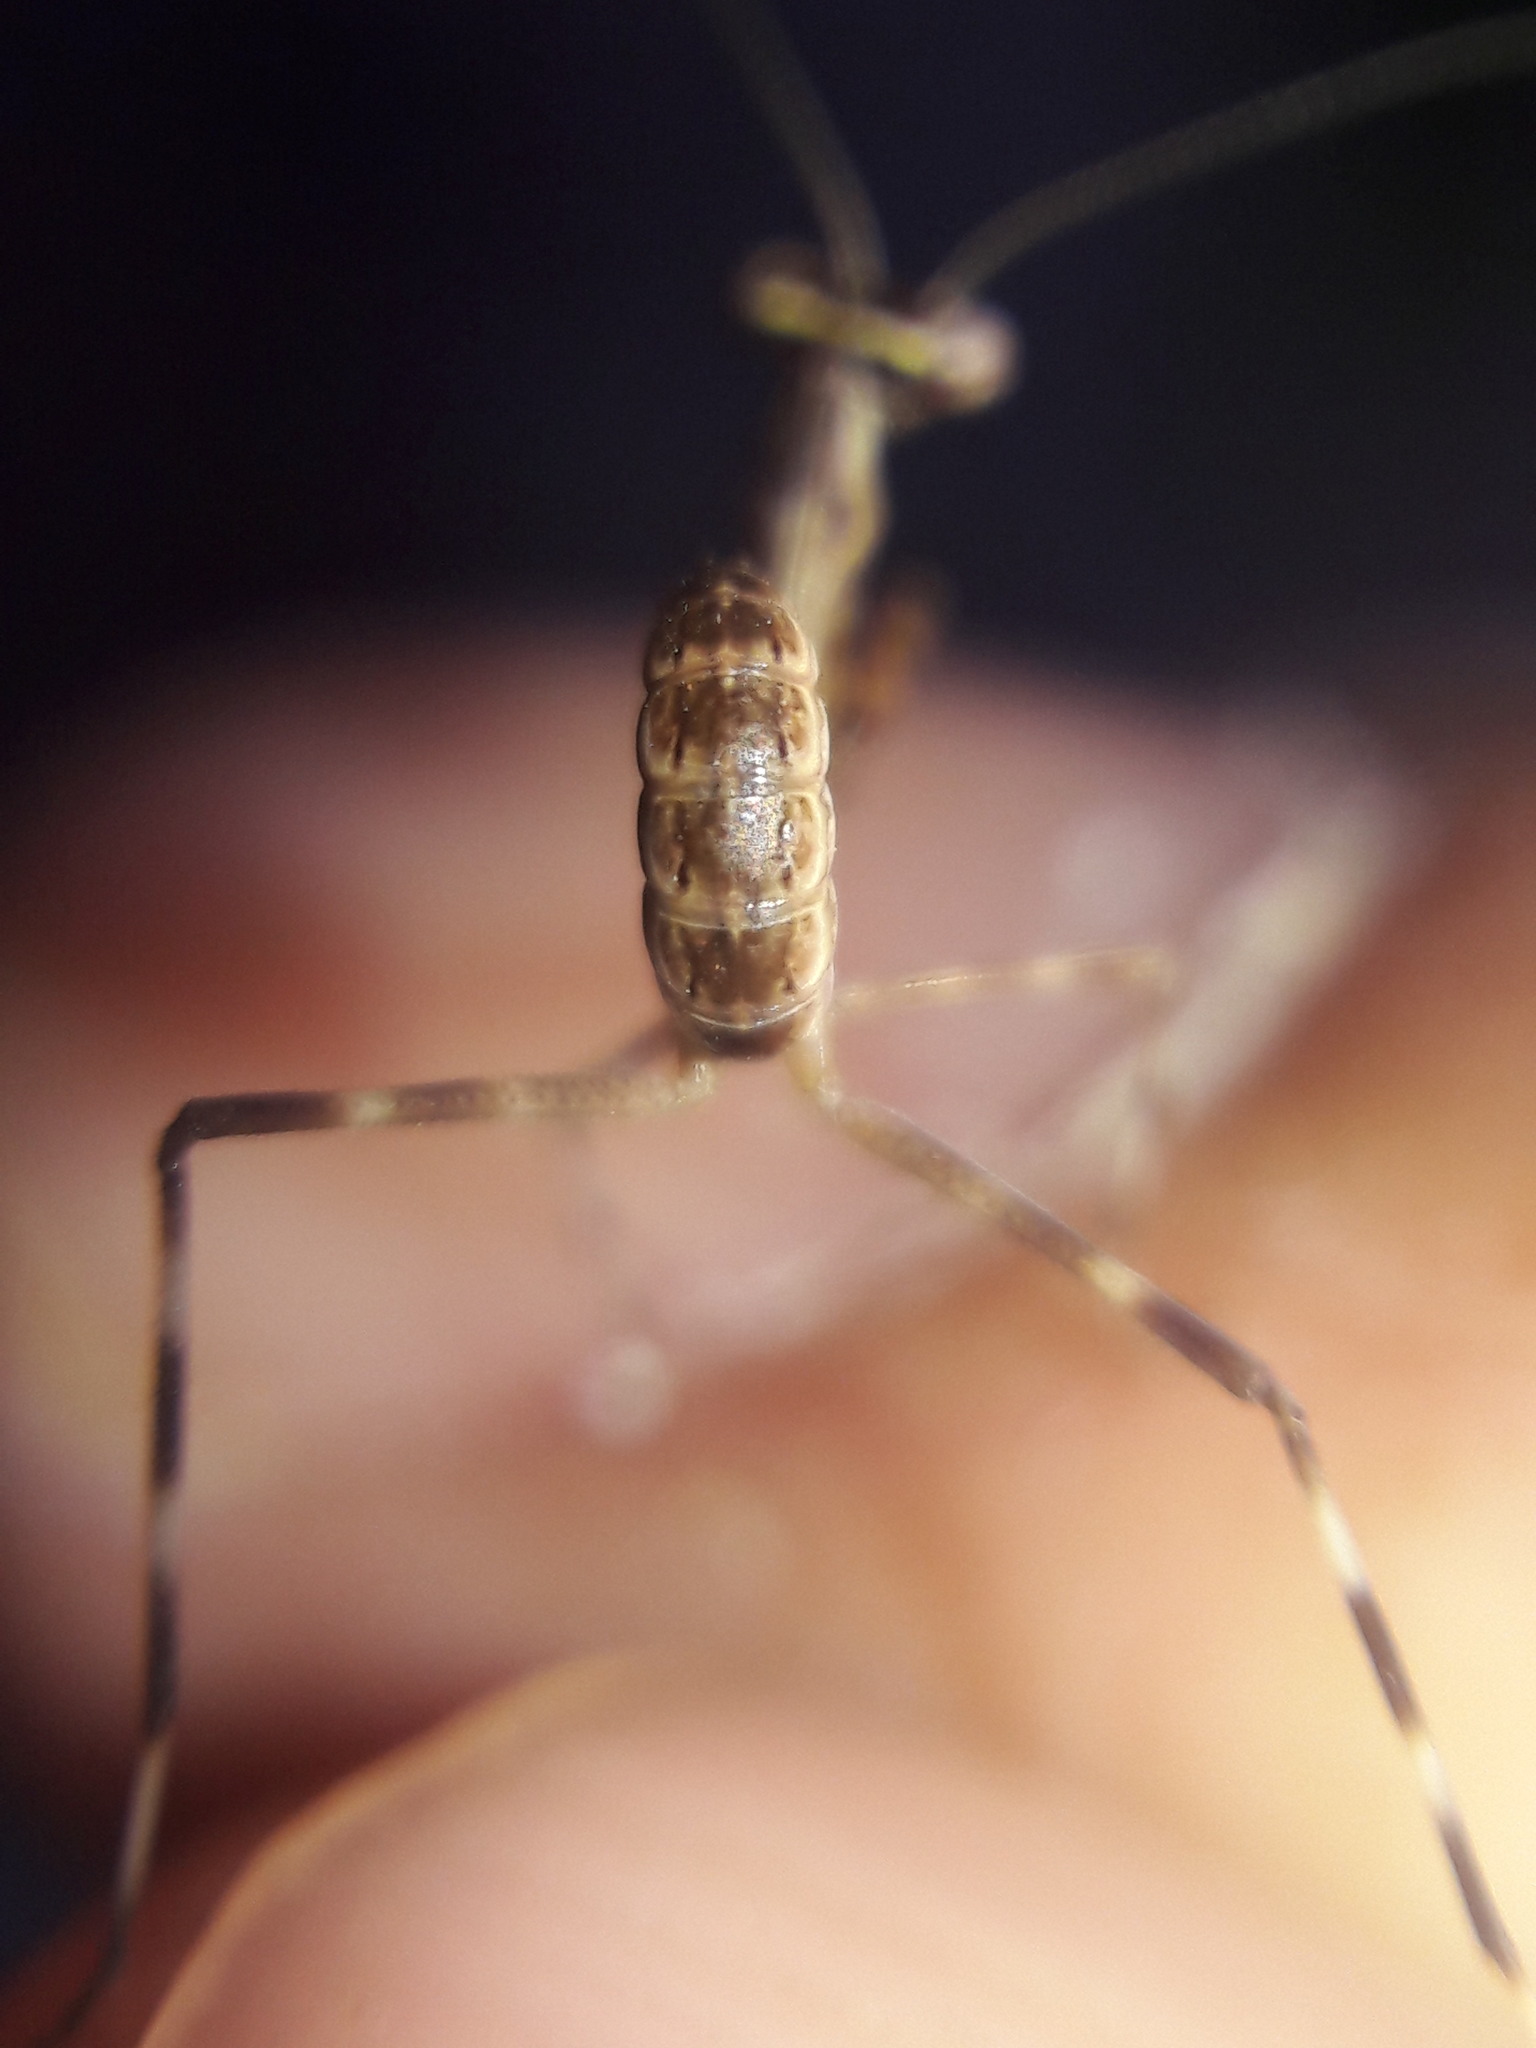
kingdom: Animalia
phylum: Arthropoda
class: Insecta
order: Mantodea
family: Mantidae
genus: Stagmatoptera
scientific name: Stagmatoptera
